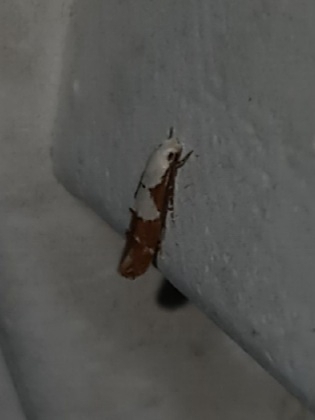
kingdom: Animalia
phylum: Arthropoda
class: Insecta
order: Lepidoptera
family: Momphidae
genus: Mompha
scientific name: Mompha circumscriptella
